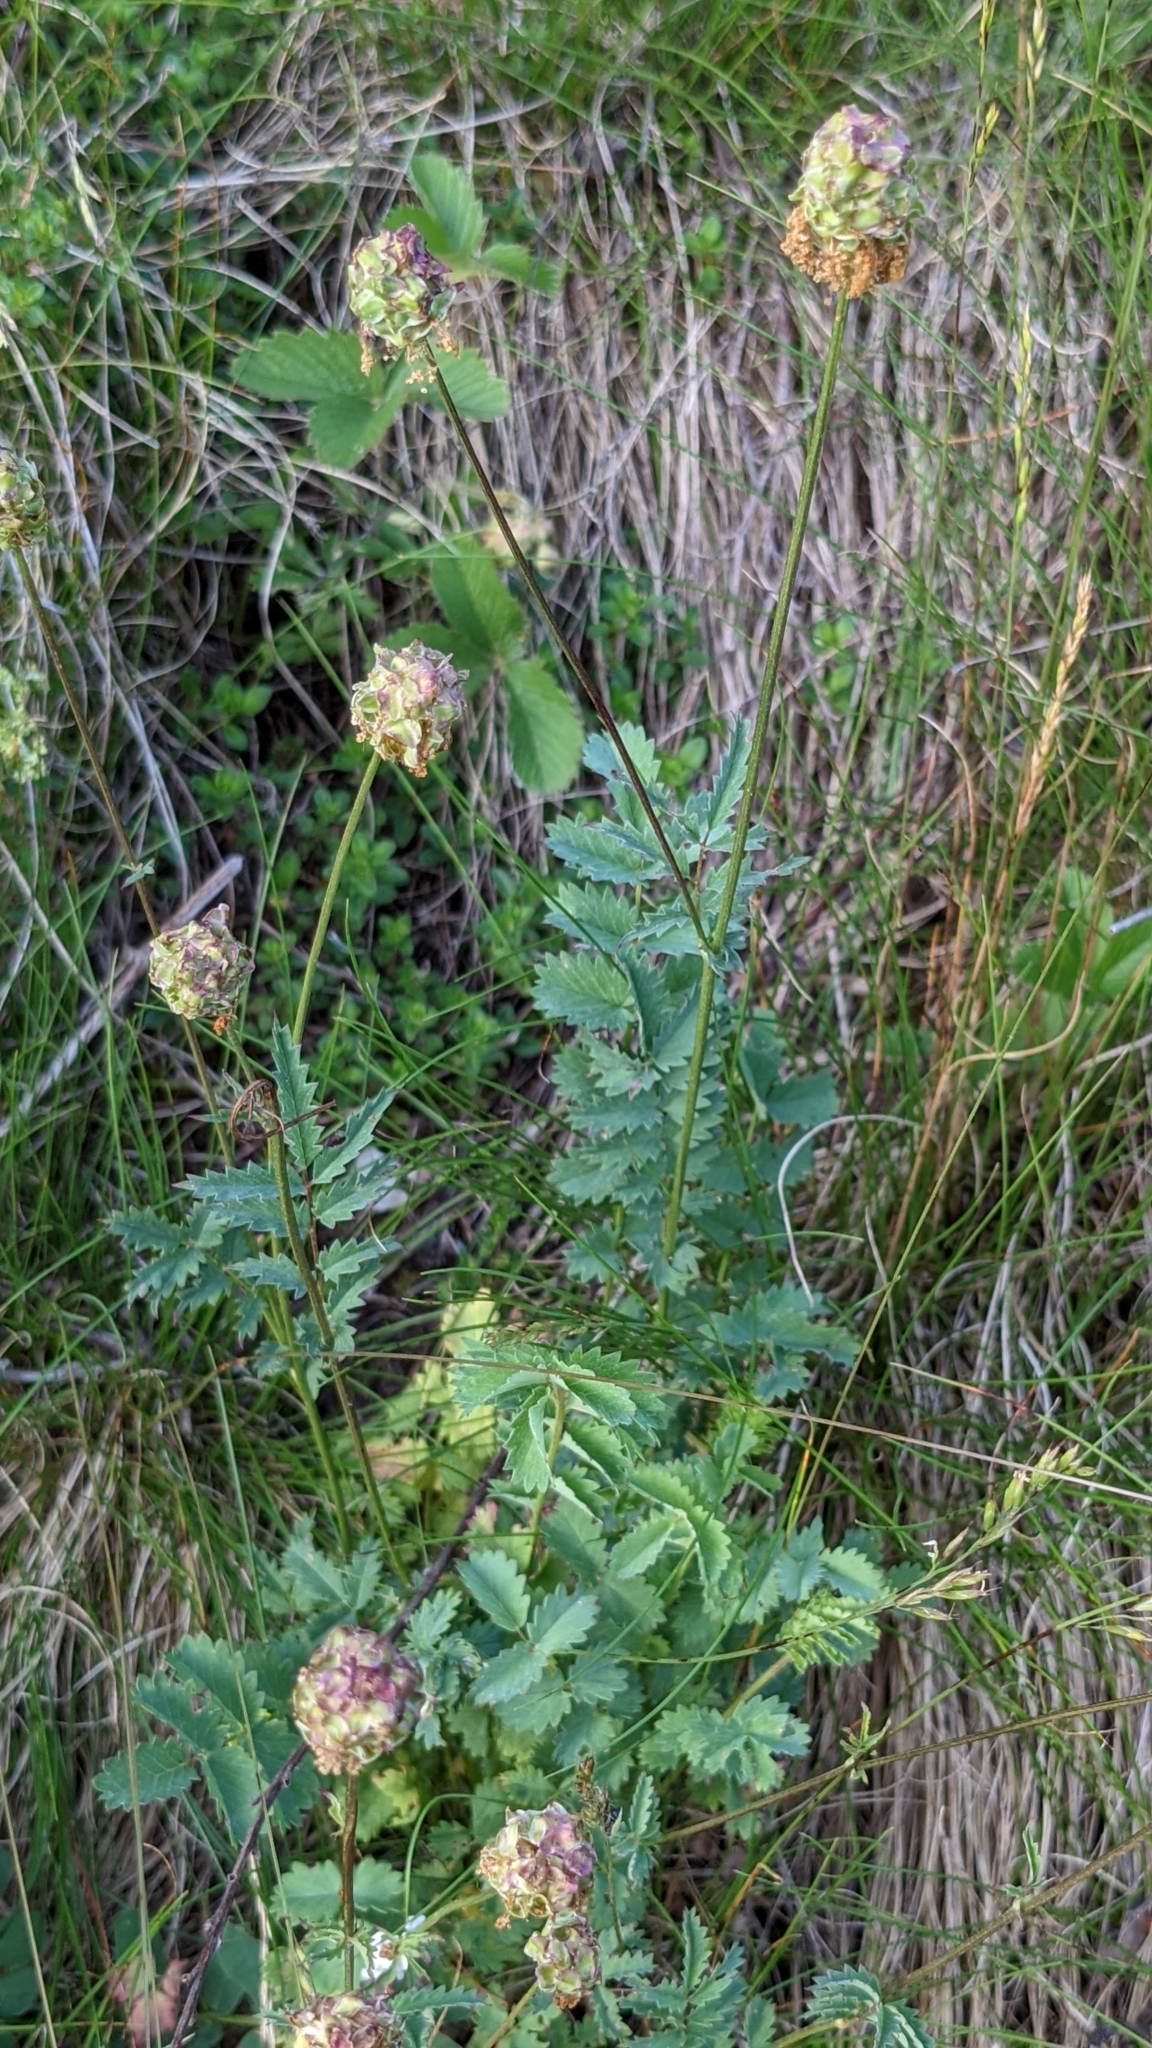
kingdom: Plantae
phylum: Tracheophyta
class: Magnoliopsida
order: Rosales
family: Rosaceae
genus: Poterium
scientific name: Poterium sanguisorba
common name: Salad burnet
